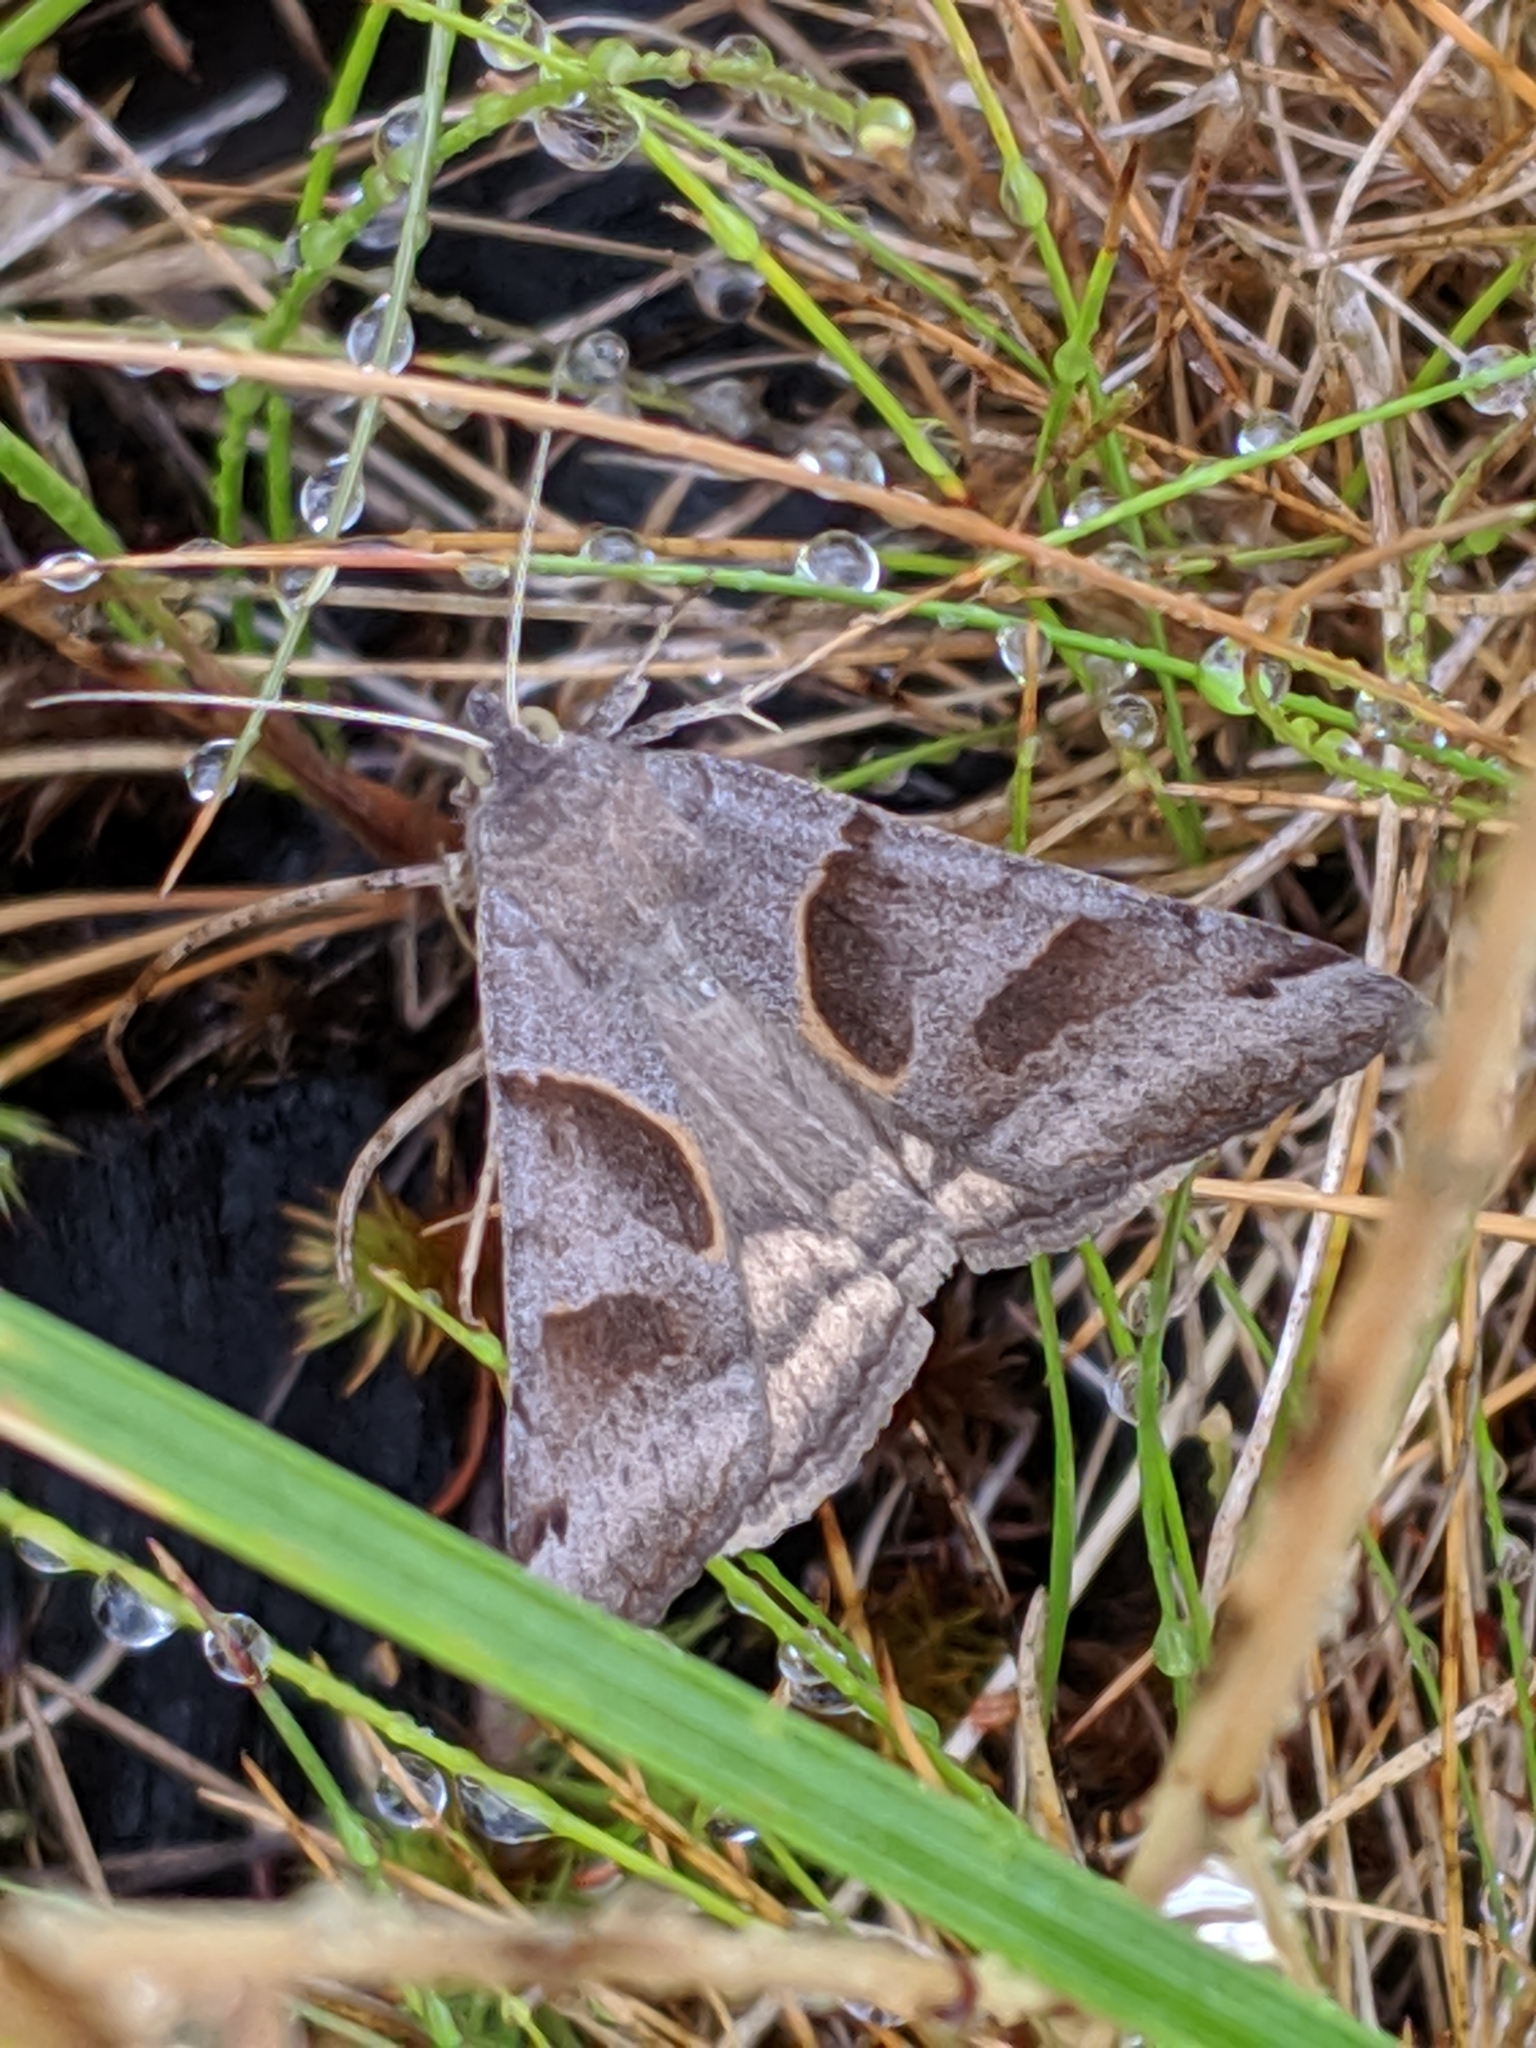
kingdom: Animalia
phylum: Arthropoda
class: Insecta
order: Lepidoptera
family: Erebidae
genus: Caenurgina
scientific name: Caenurgina erechtea
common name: Forage looper moth
